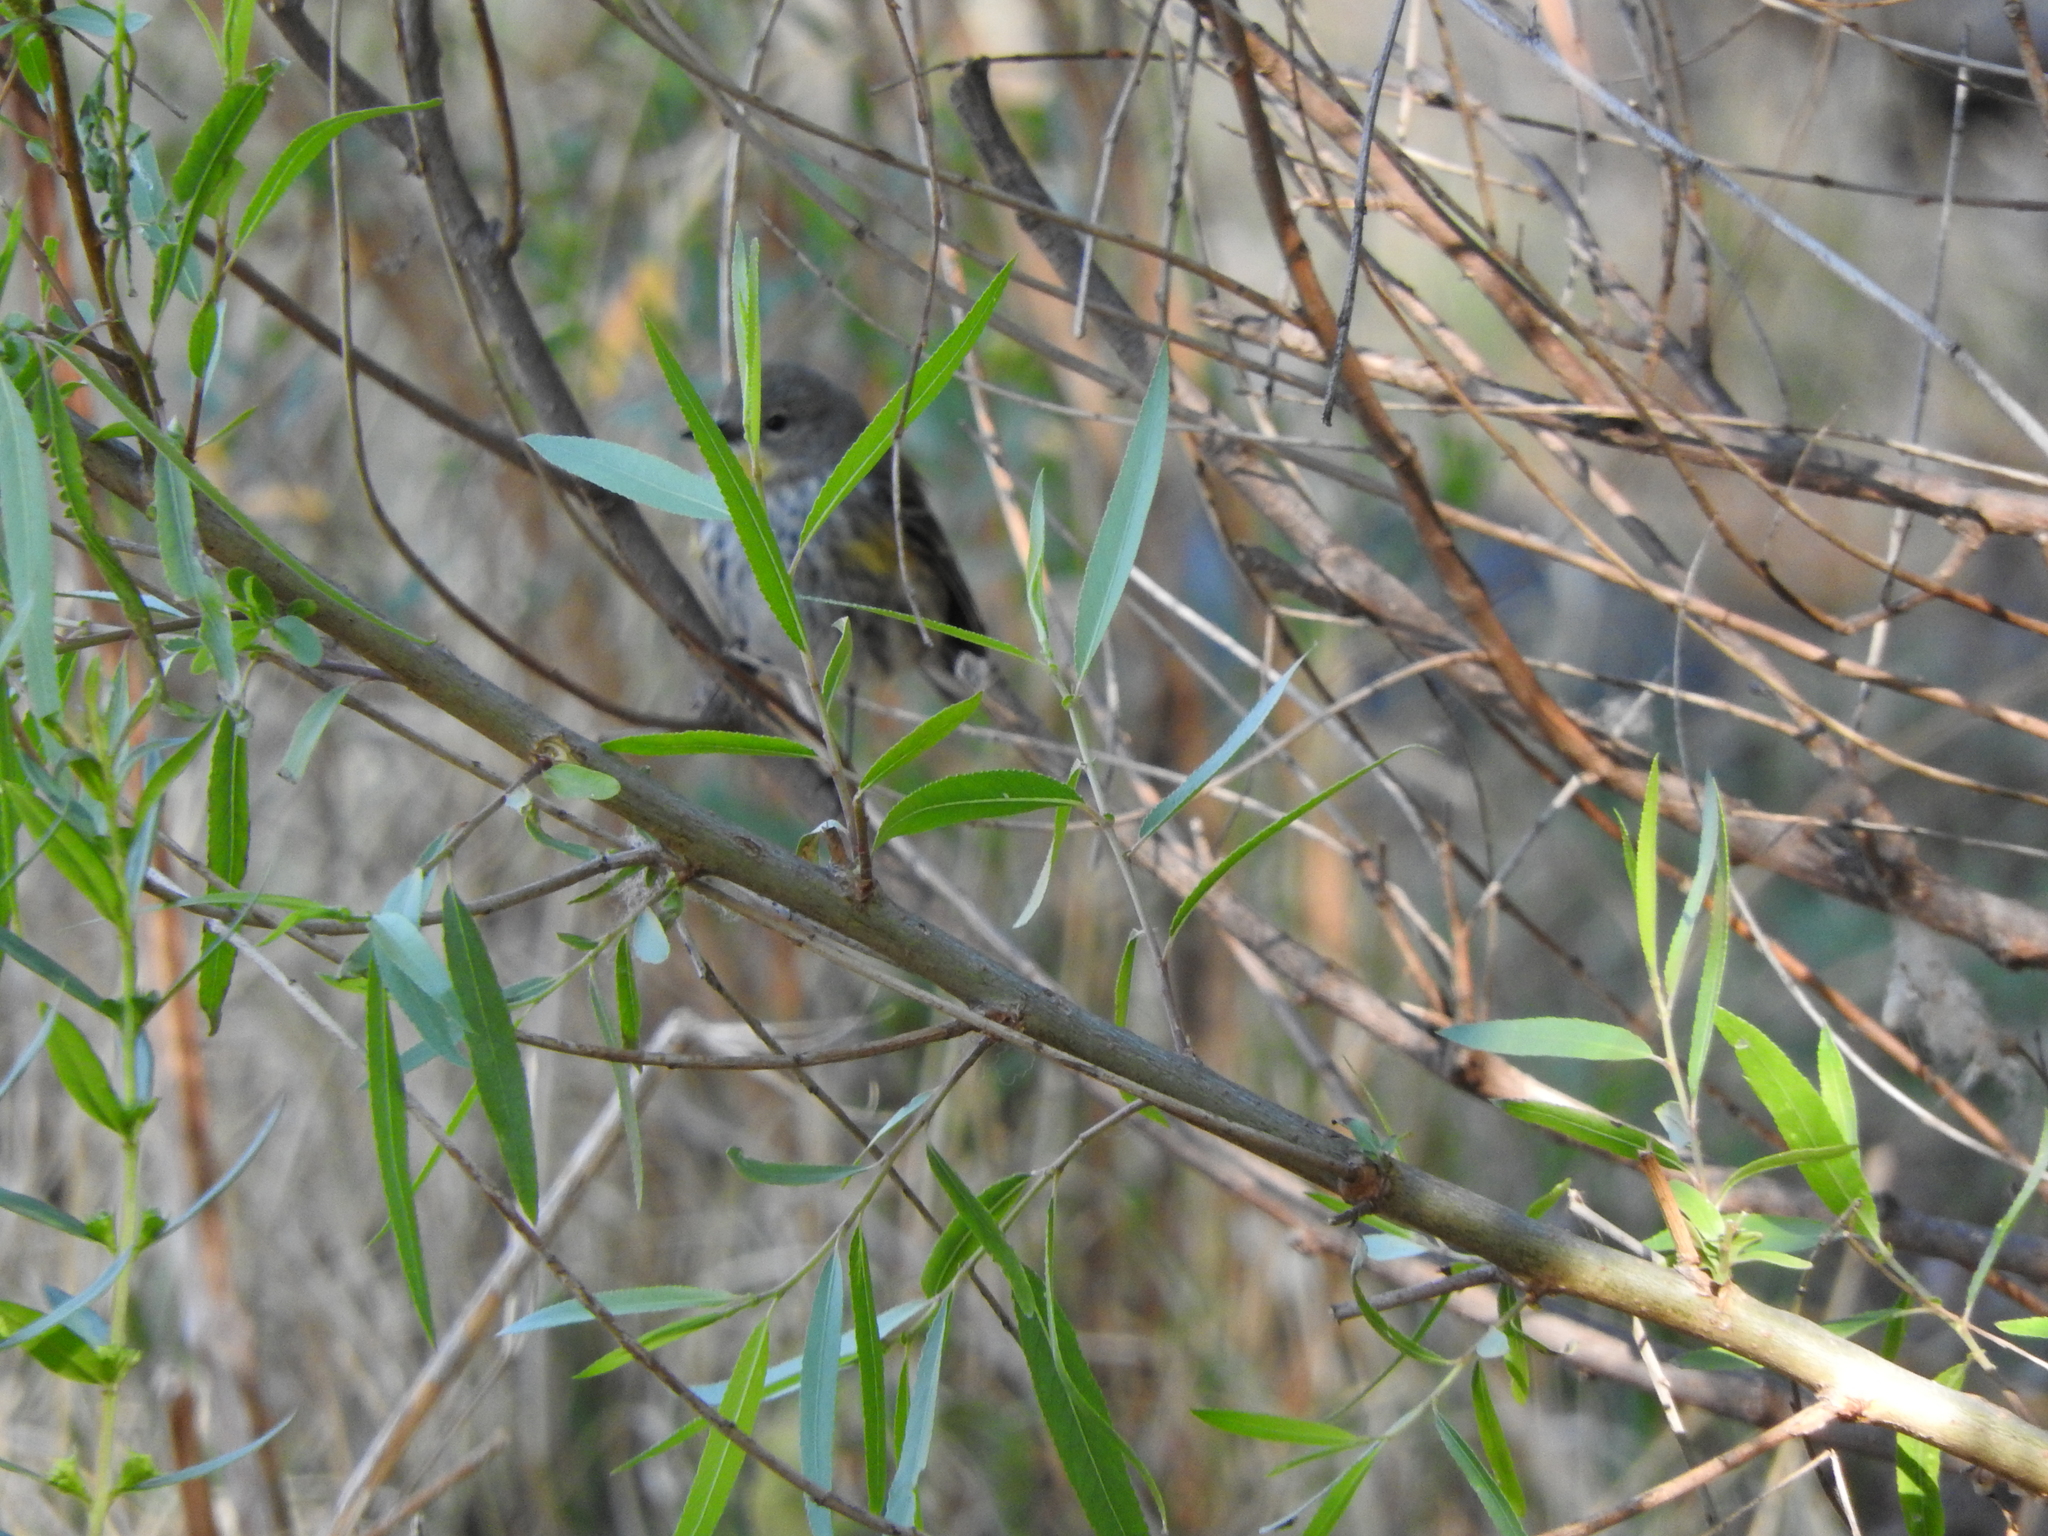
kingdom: Animalia
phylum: Chordata
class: Aves
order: Passeriformes
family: Parulidae
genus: Setophaga
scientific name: Setophaga coronata
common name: Myrtle warbler
